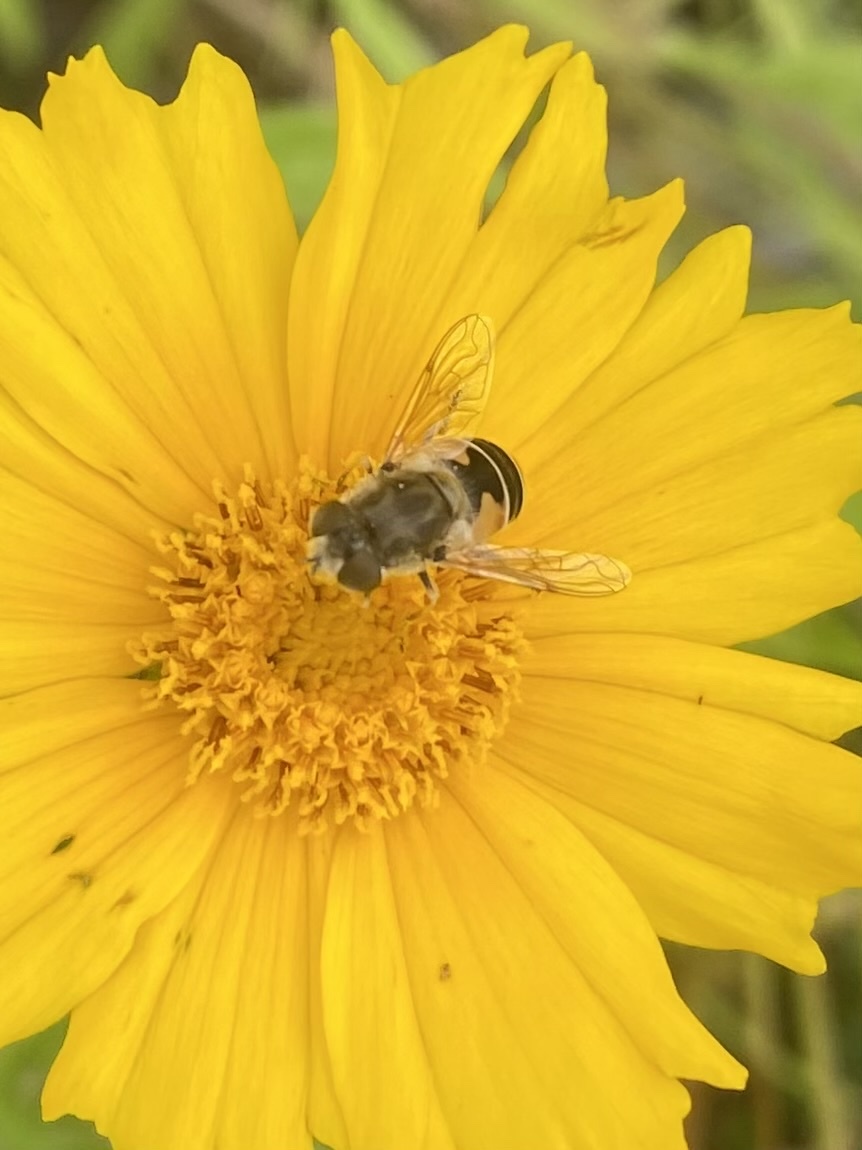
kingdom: Animalia
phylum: Arthropoda
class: Insecta
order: Diptera
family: Syrphidae
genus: Eristalis
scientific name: Eristalis arbustorum
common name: Hover fly
